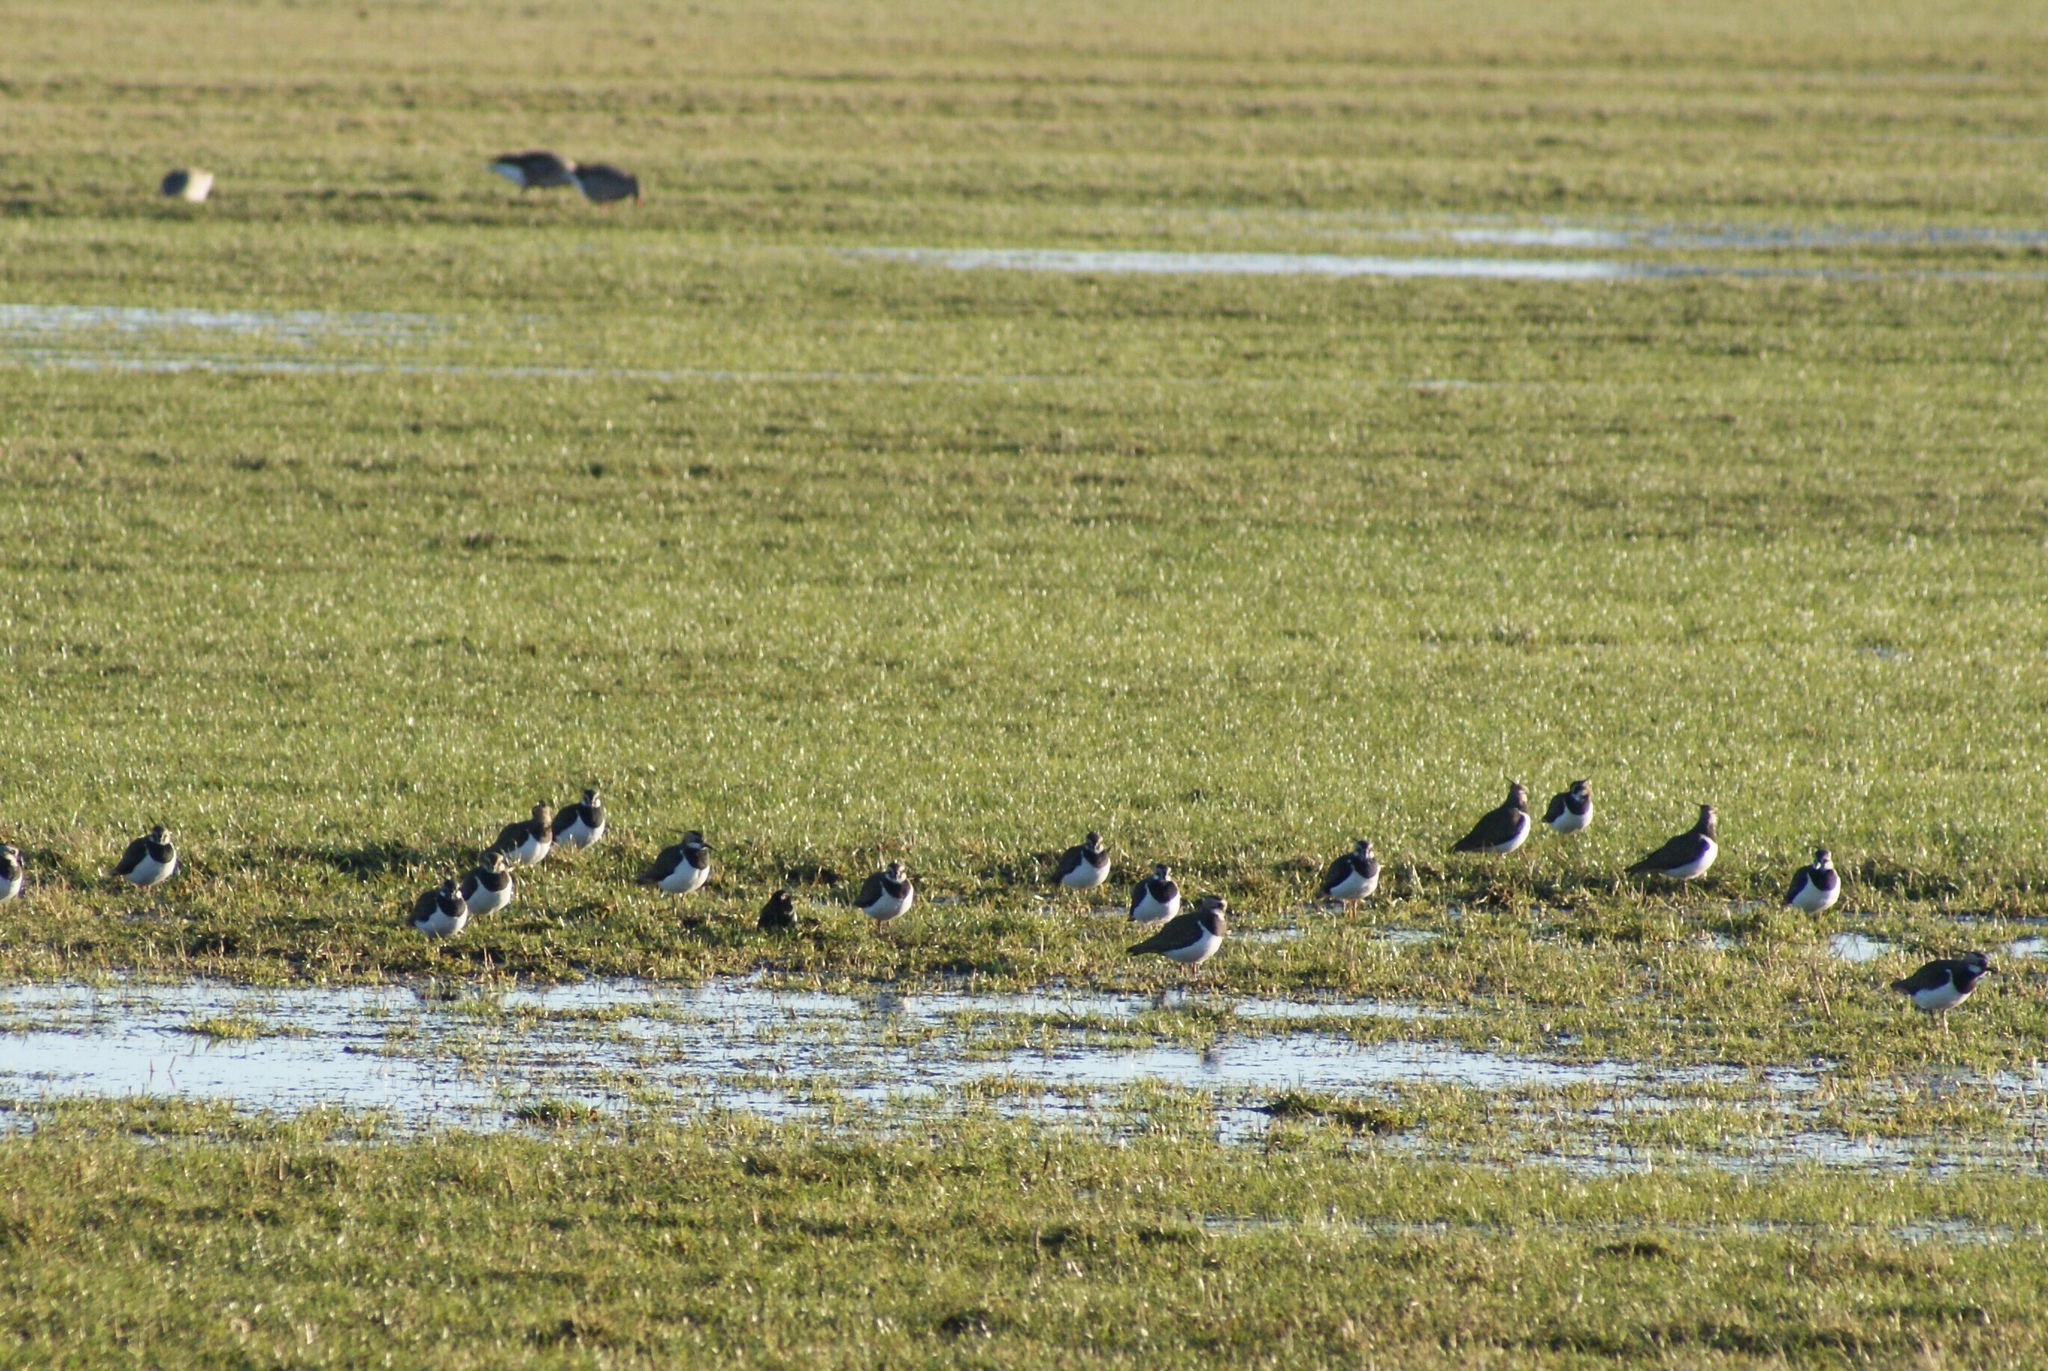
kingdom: Animalia
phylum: Chordata
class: Aves
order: Charadriiformes
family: Charadriidae
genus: Vanellus
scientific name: Vanellus vanellus
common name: Northern lapwing
